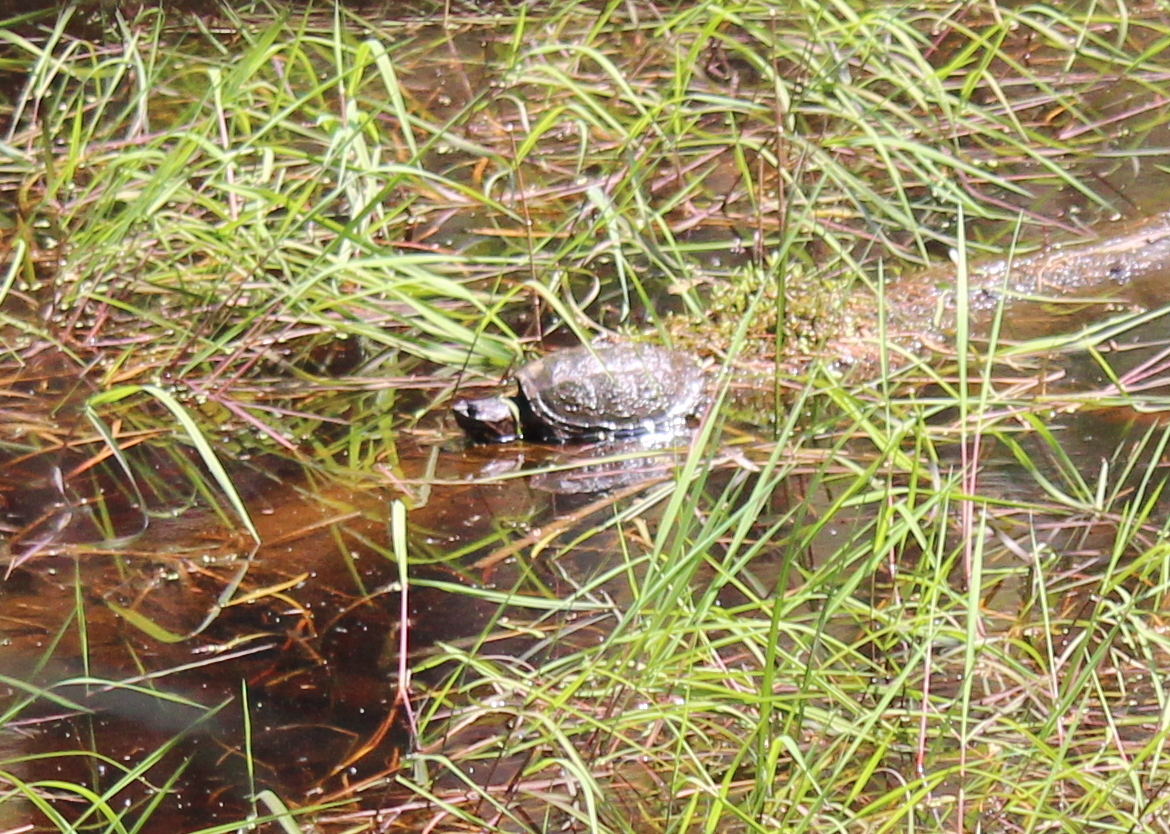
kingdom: Animalia
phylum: Chordata
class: Testudines
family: Chelydridae
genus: Chelydra
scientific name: Chelydra serpentina
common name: Common snapping turtle
